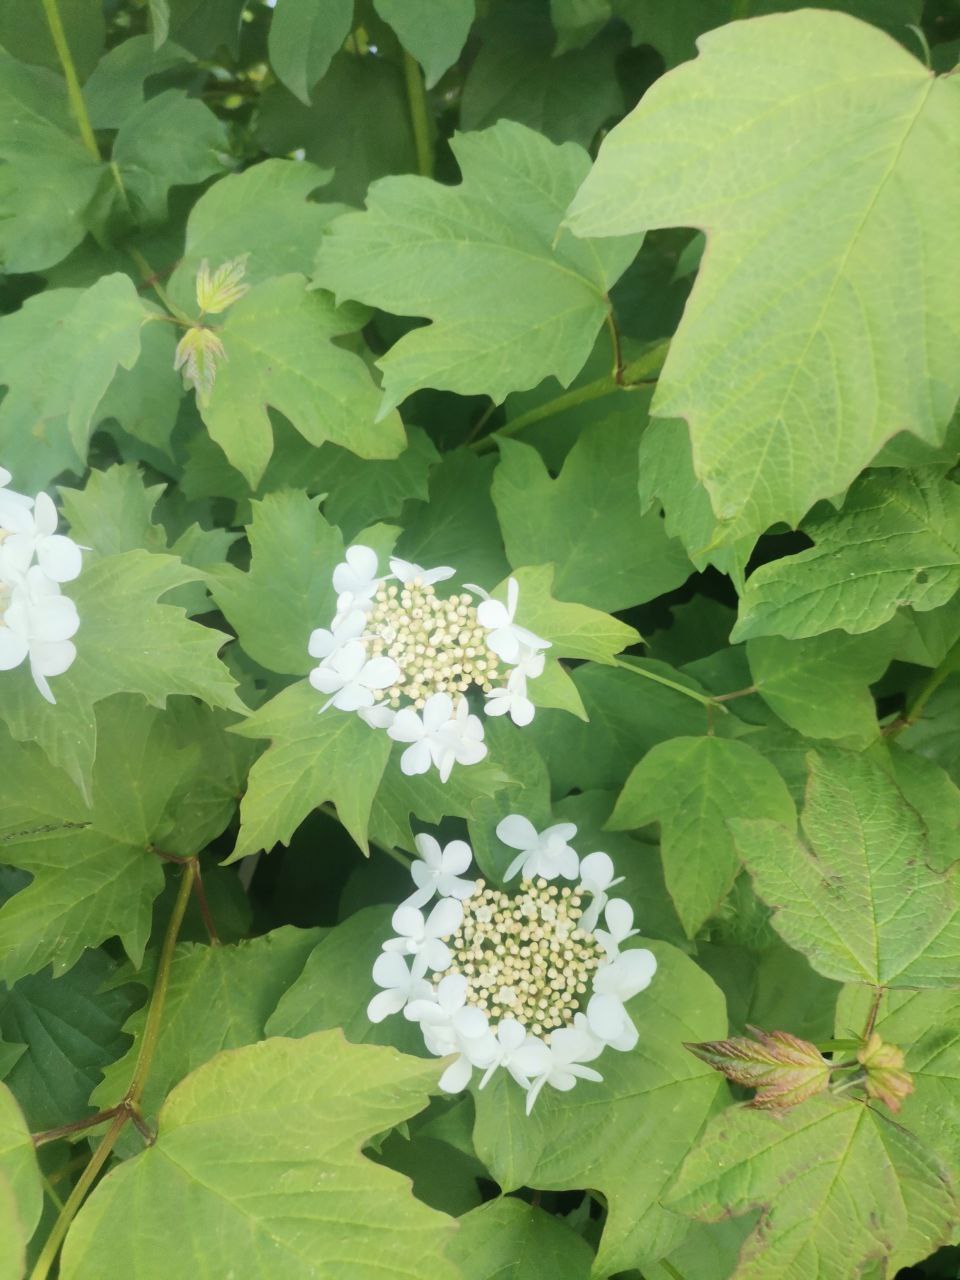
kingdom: Plantae
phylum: Tracheophyta
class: Magnoliopsida
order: Dipsacales
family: Viburnaceae
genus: Viburnum
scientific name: Viburnum opulus
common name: Guelder-rose
